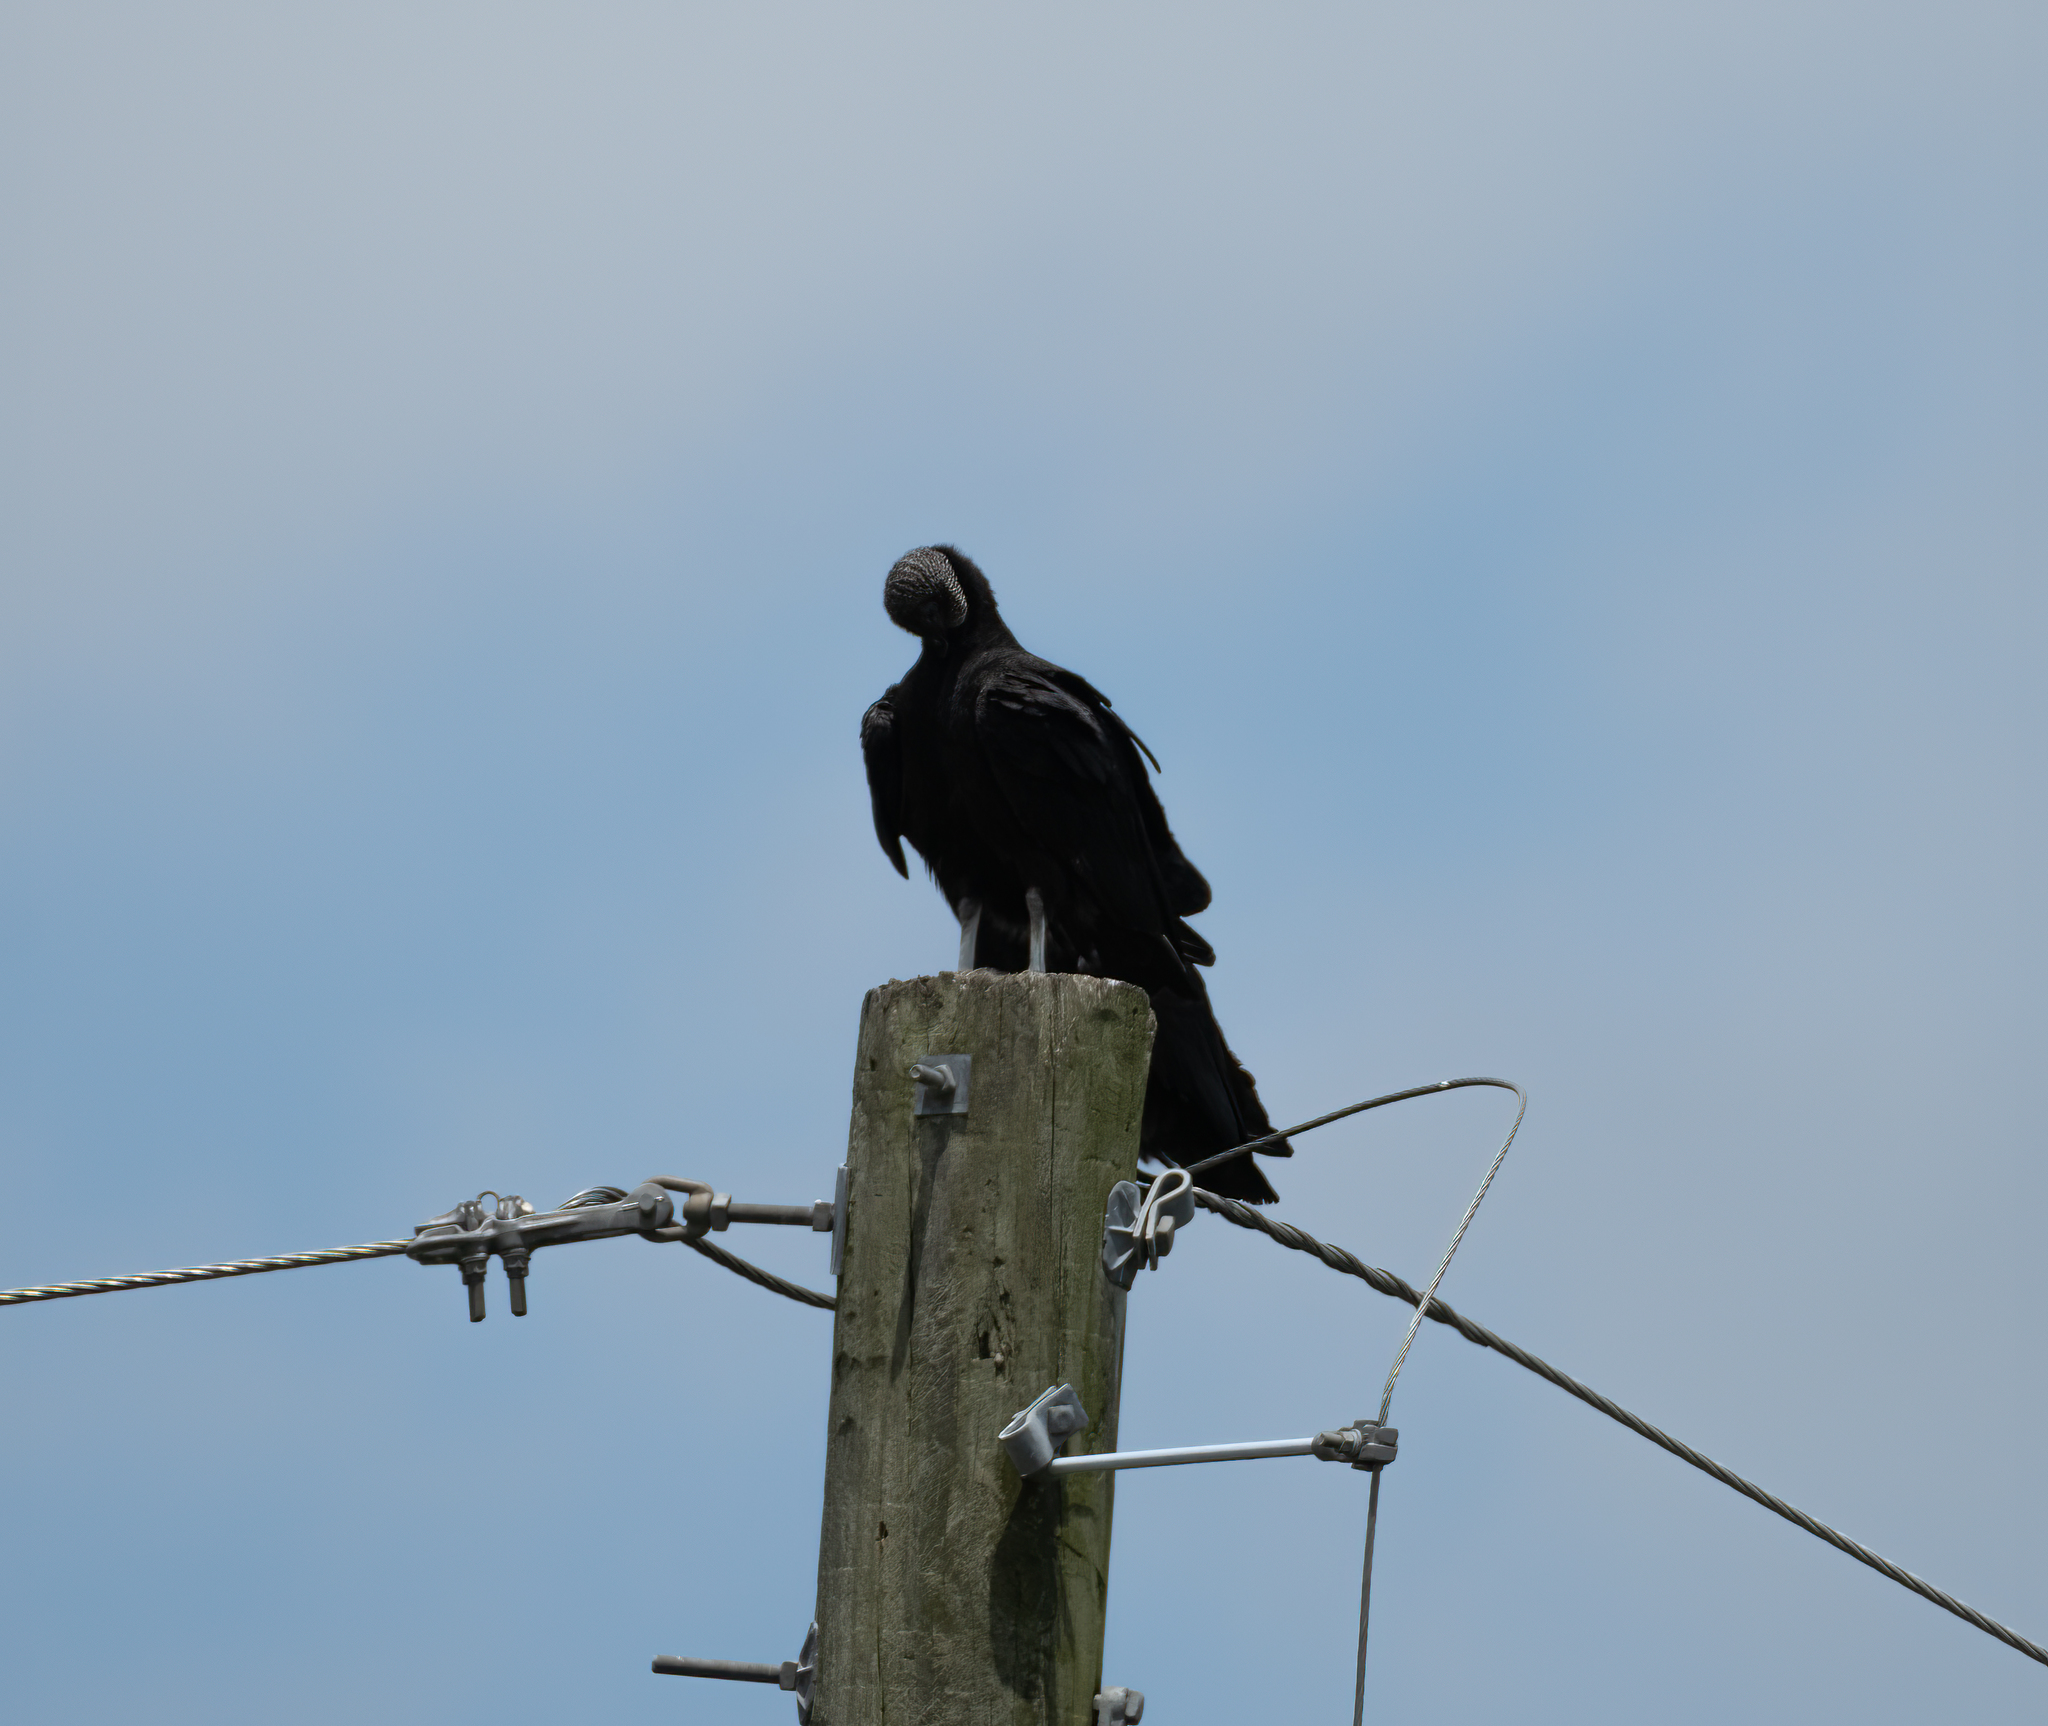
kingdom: Animalia
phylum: Chordata
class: Aves
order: Accipitriformes
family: Cathartidae
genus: Coragyps
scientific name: Coragyps atratus
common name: Black vulture
